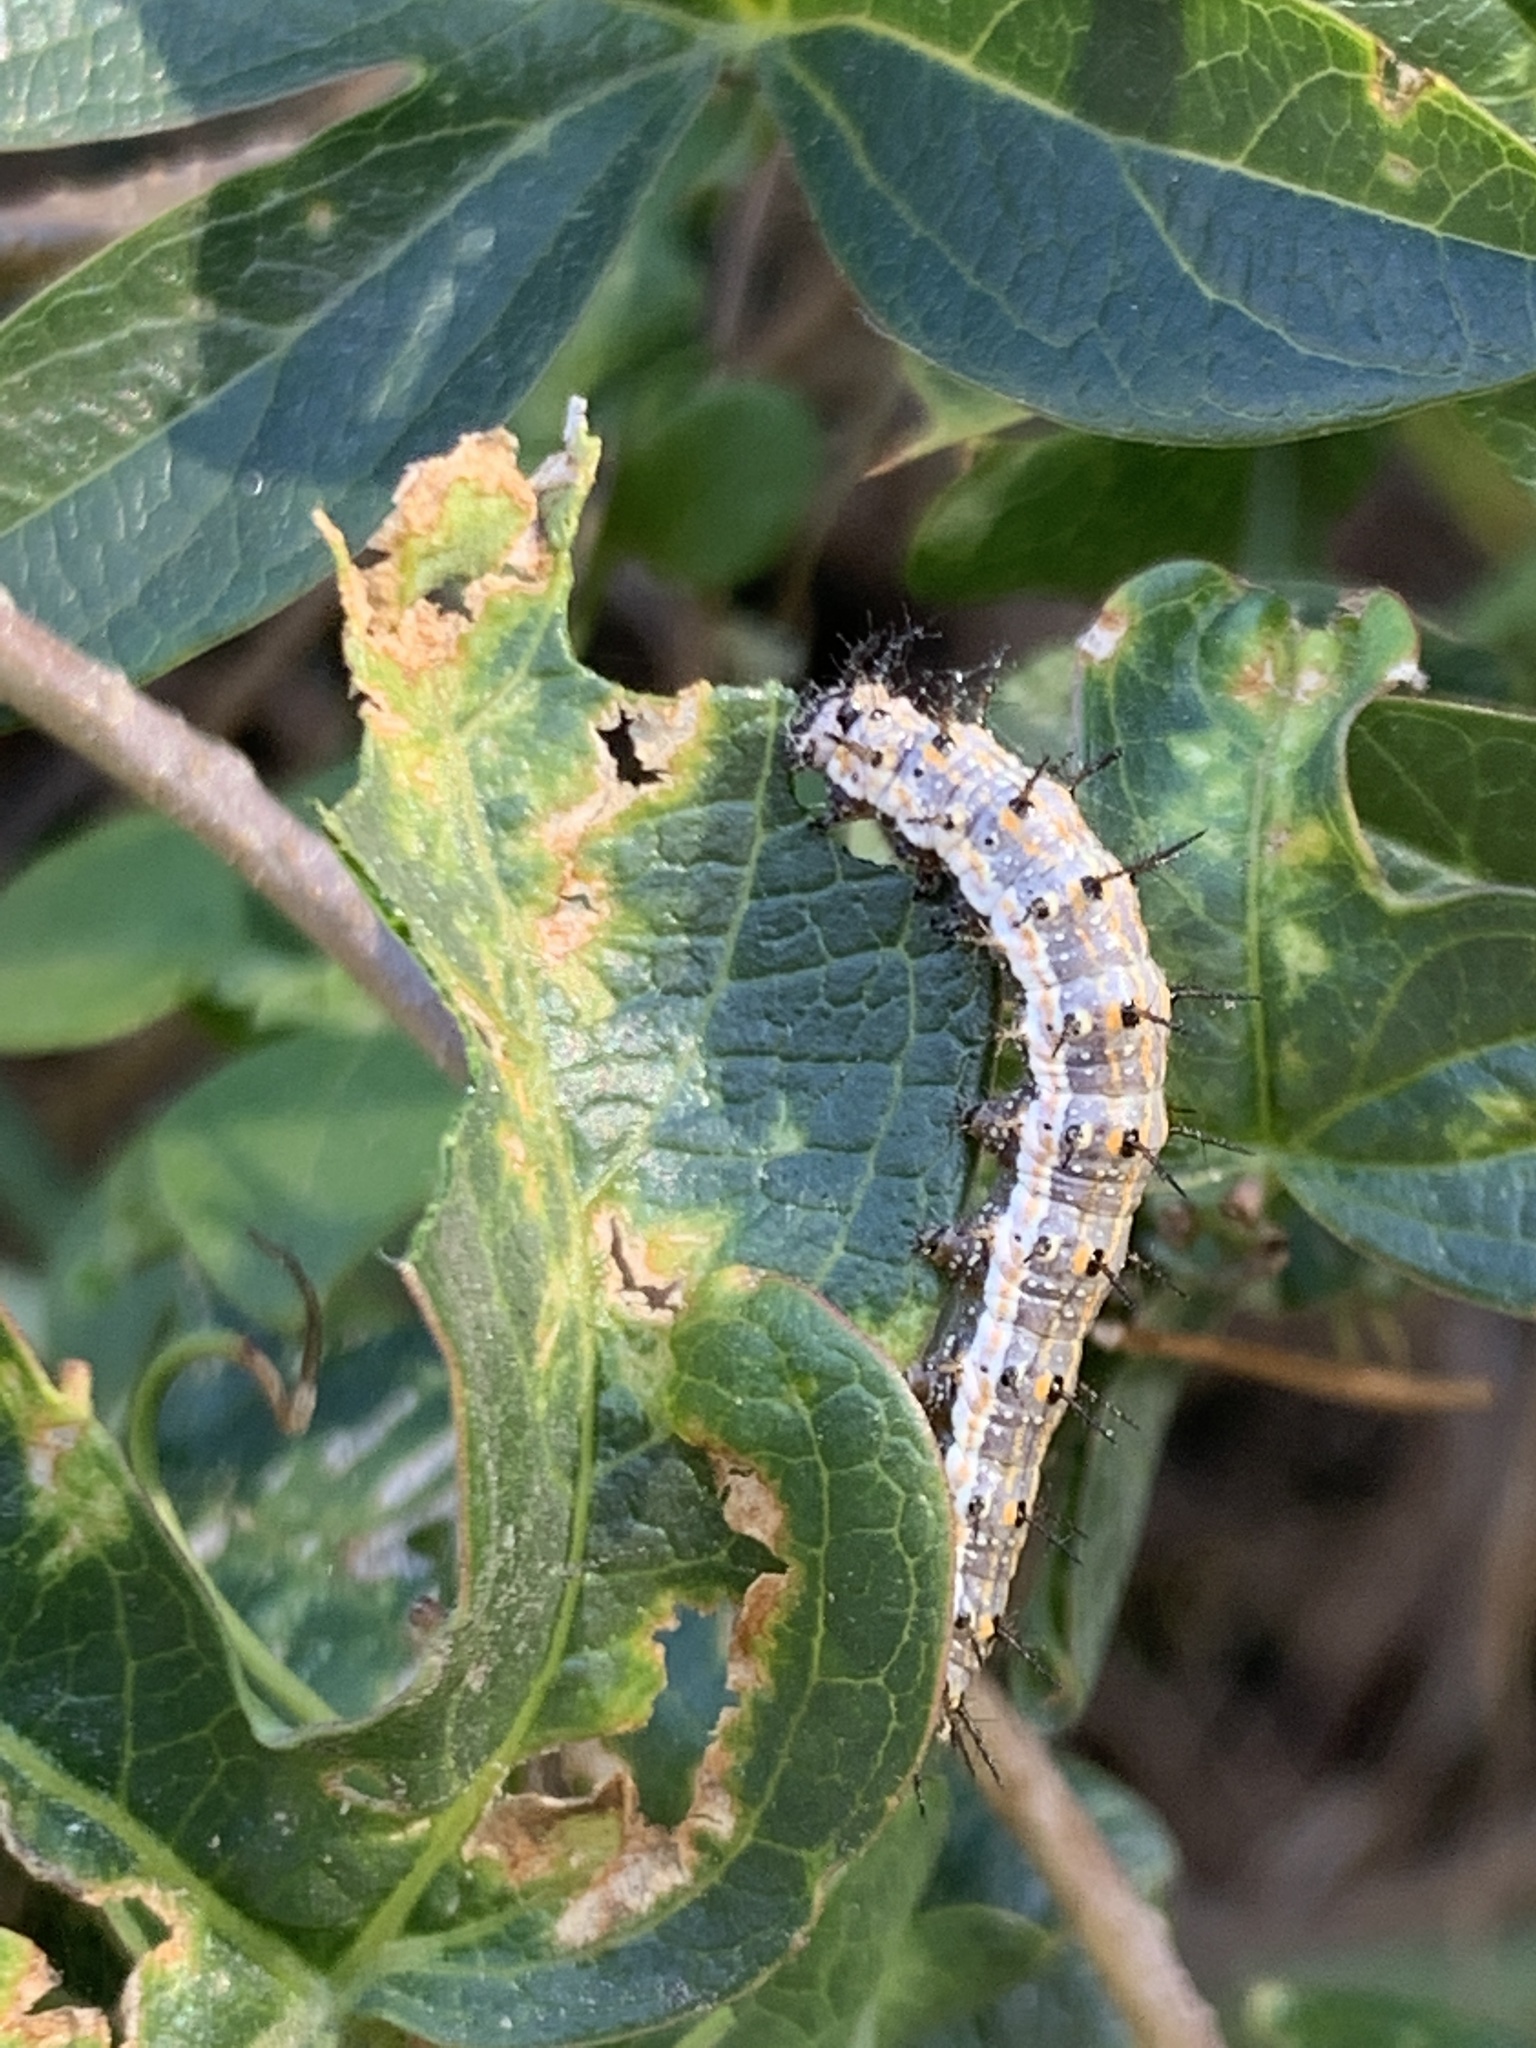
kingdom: Animalia
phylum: Arthropoda
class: Insecta
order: Lepidoptera
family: Nymphalidae
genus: Dione
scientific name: Dione vanillae
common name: Gulf fritillary
